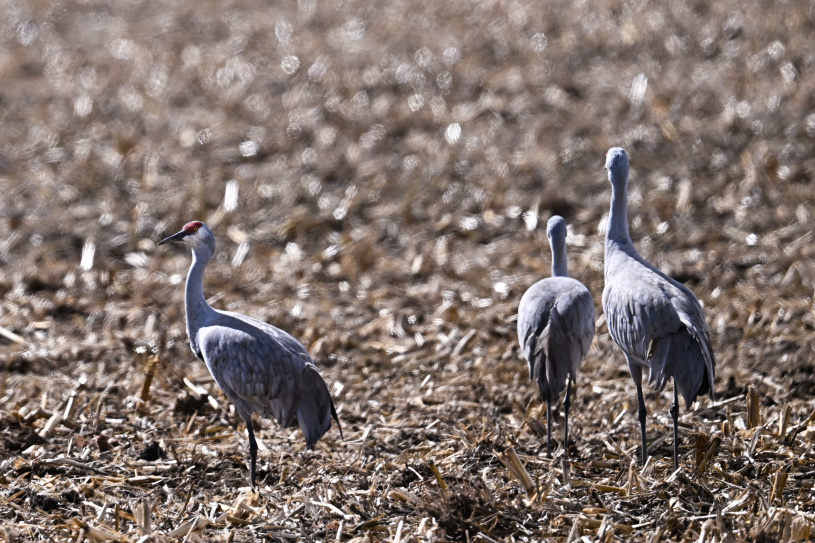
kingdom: Animalia
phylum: Chordata
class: Aves
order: Gruiformes
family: Gruidae
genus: Grus
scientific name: Grus canadensis
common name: Sandhill crane
